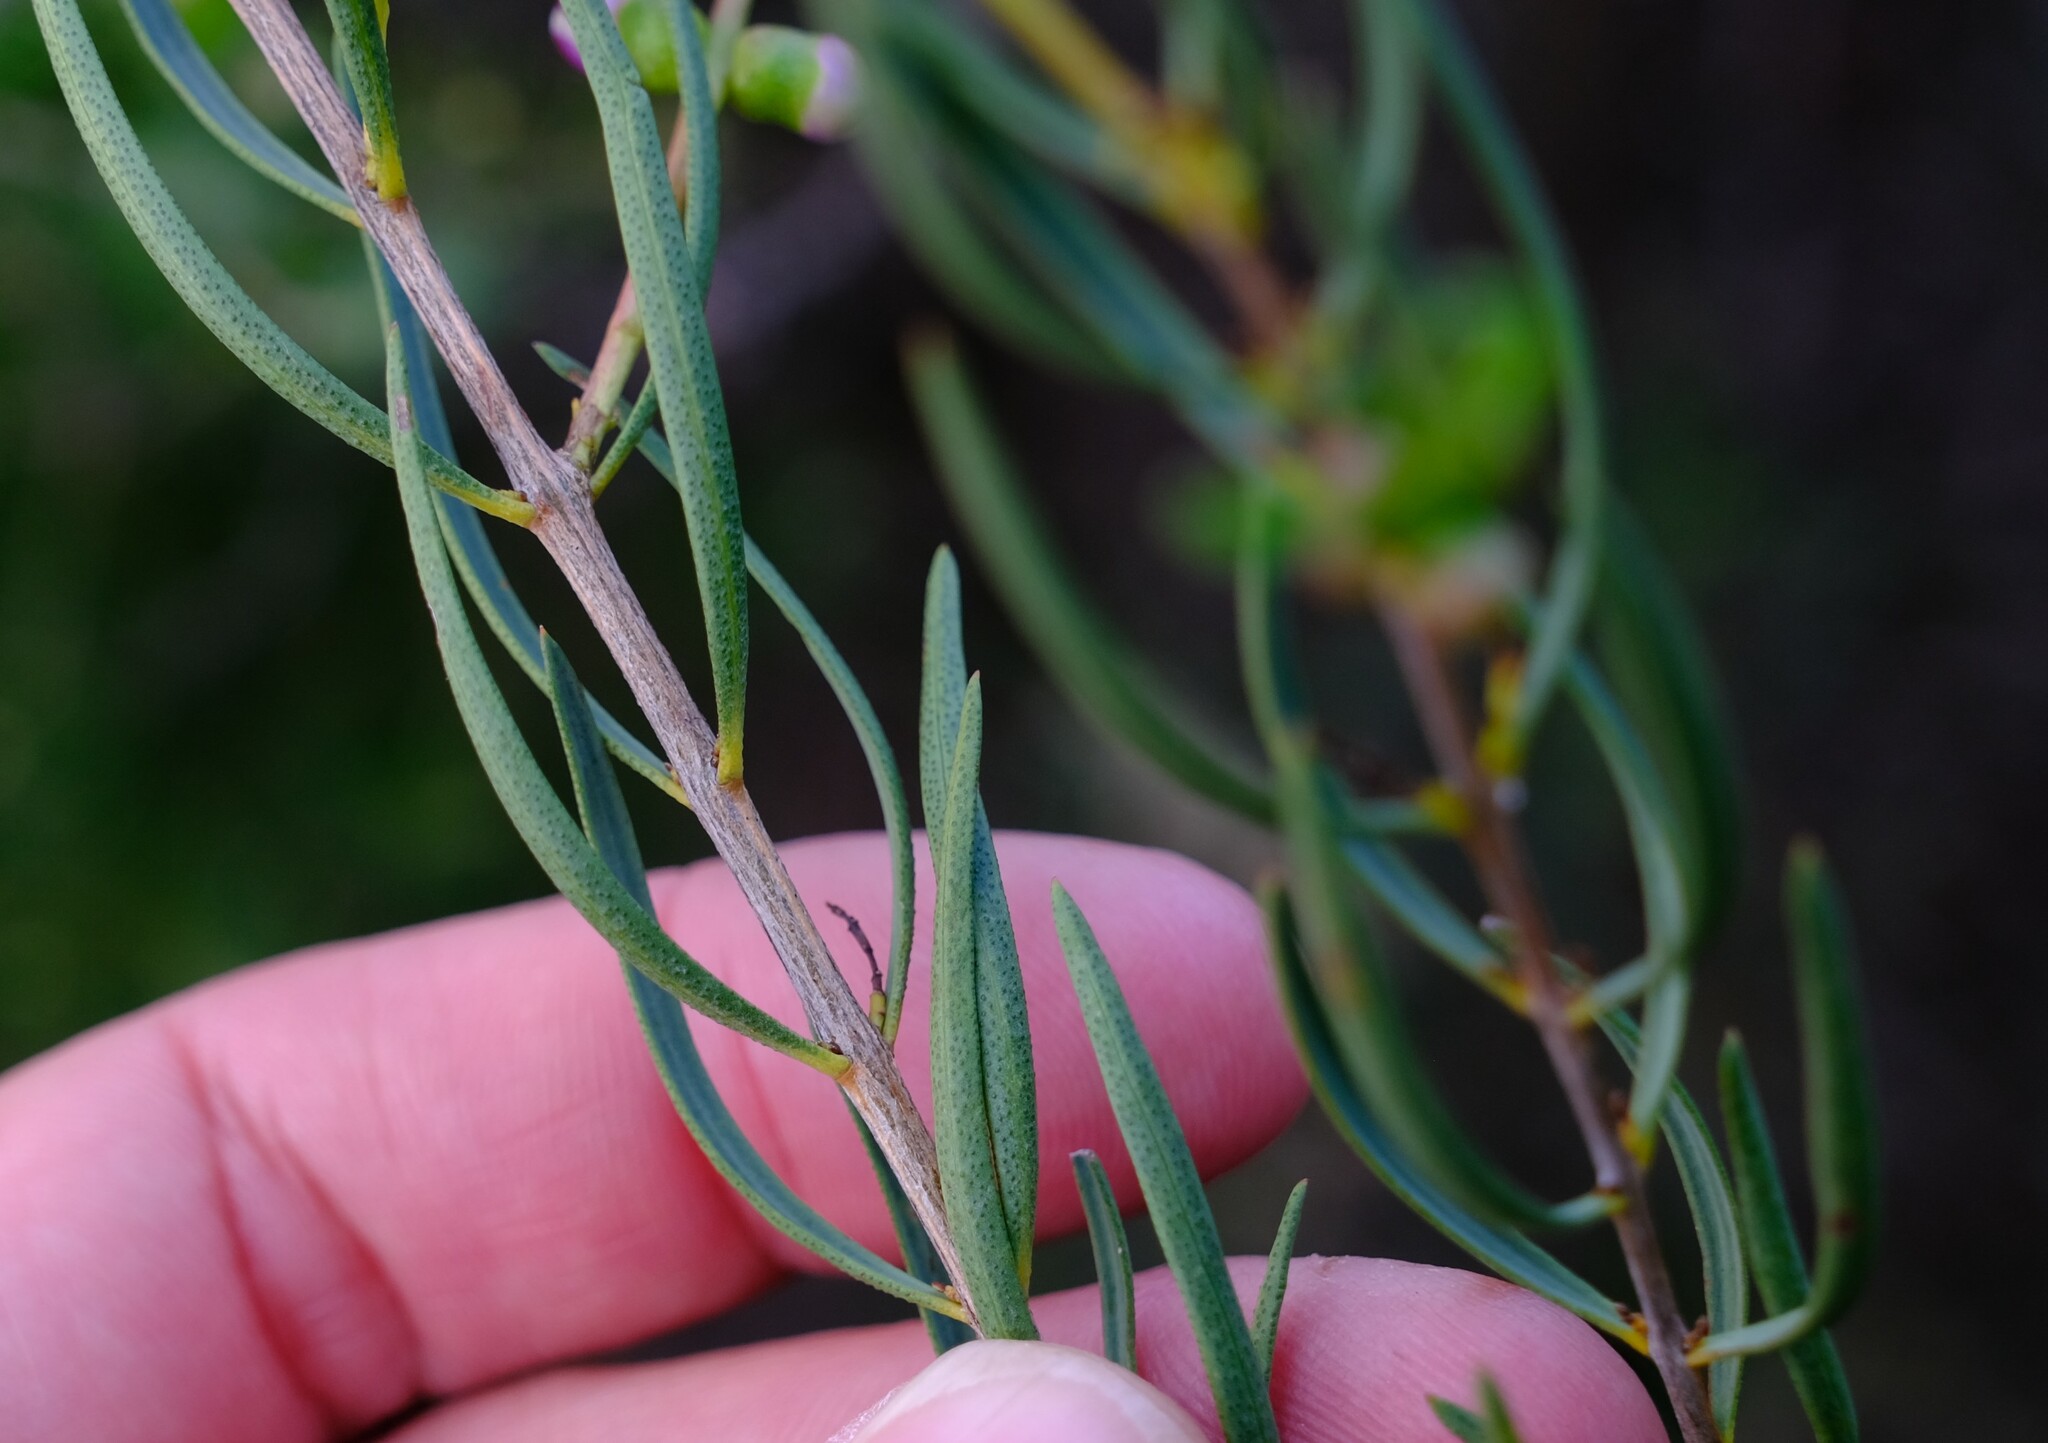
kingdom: Plantae
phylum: Tracheophyta
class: Magnoliopsida
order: Myrtales
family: Myrtaceae
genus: Melaleuca
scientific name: Melaleuca radula
